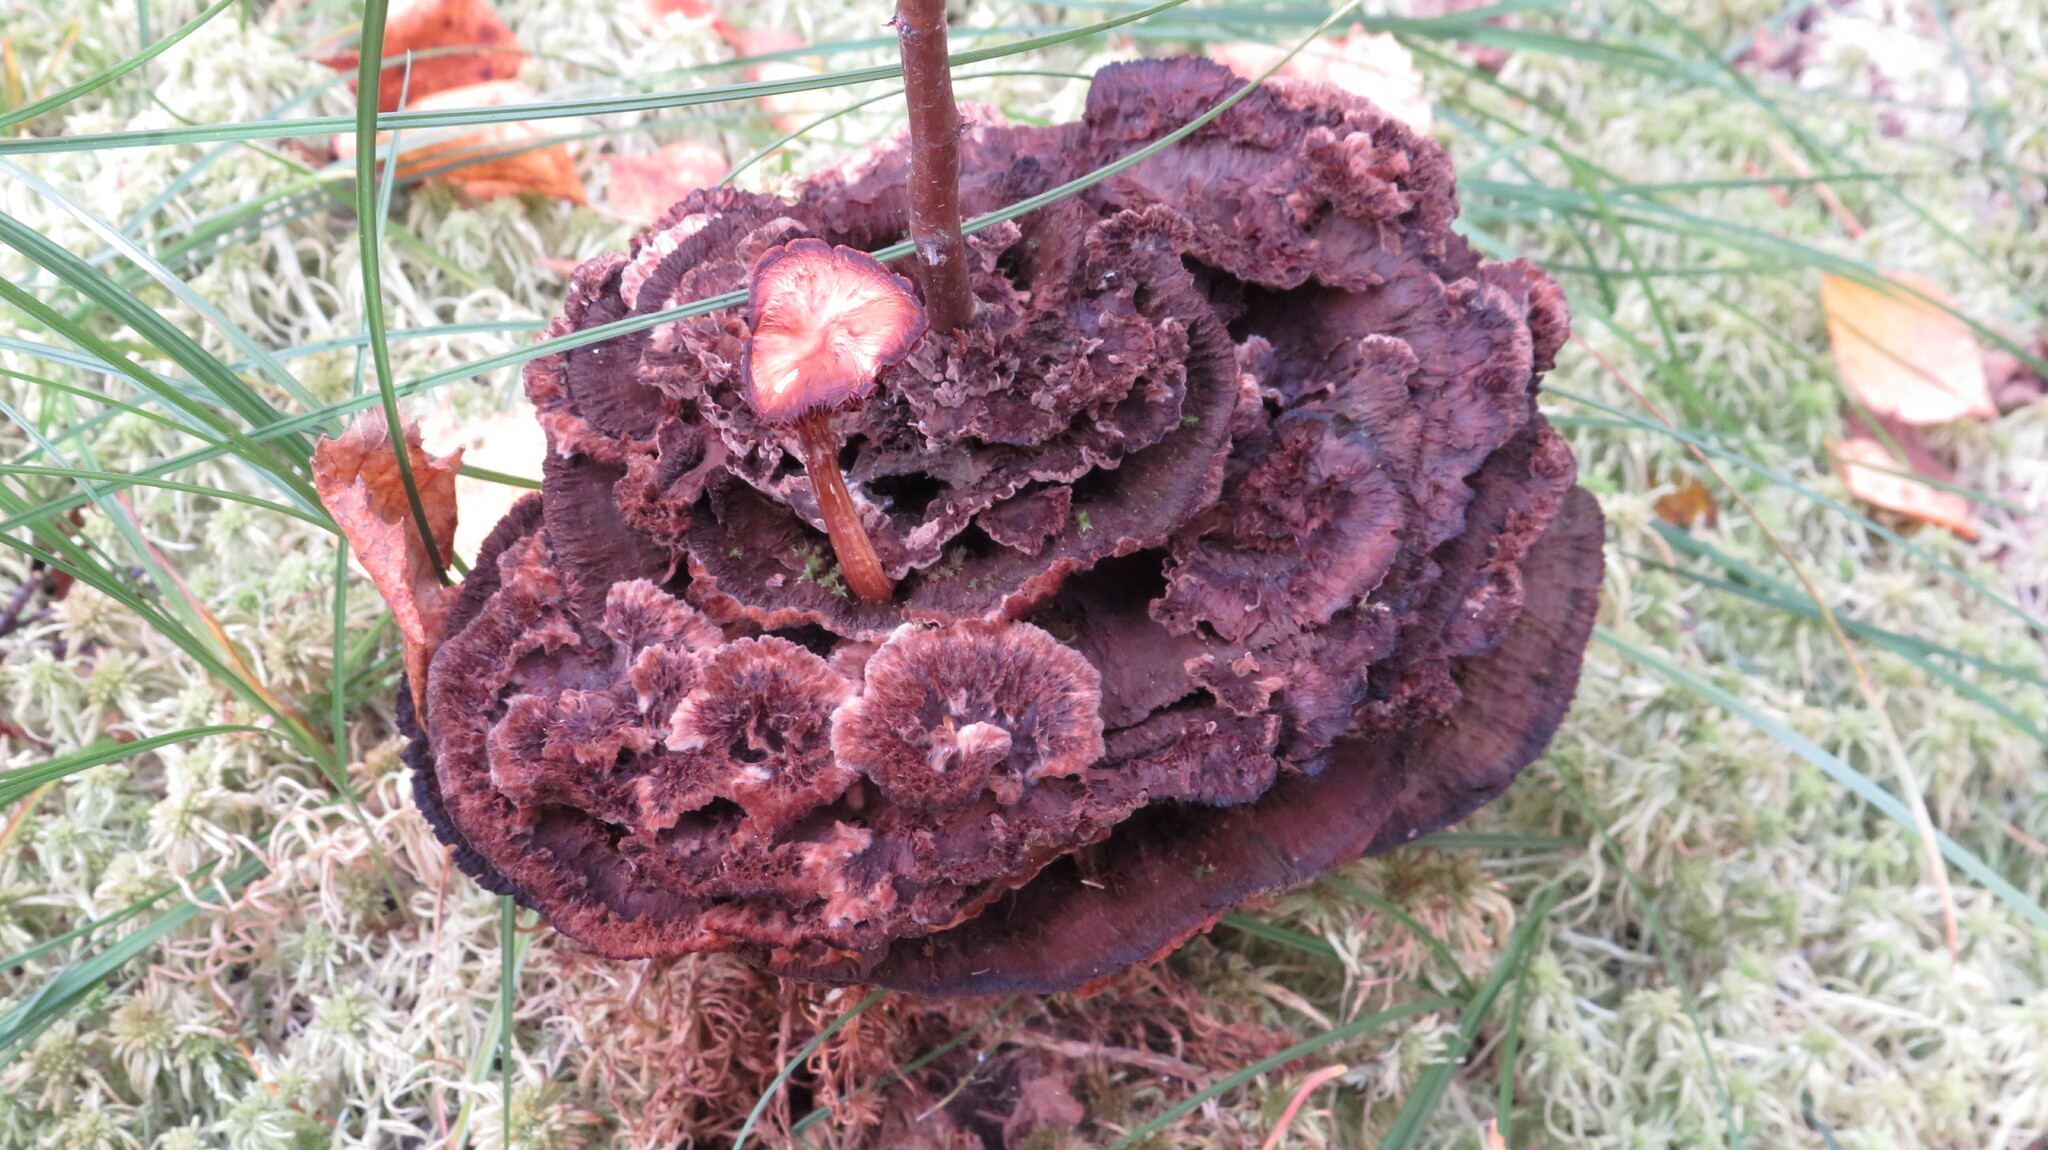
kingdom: Fungi
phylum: Basidiomycota
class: Agaricomycetes
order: Thelephorales
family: Thelephoraceae
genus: Thelephora
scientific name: Thelephora terrestris
